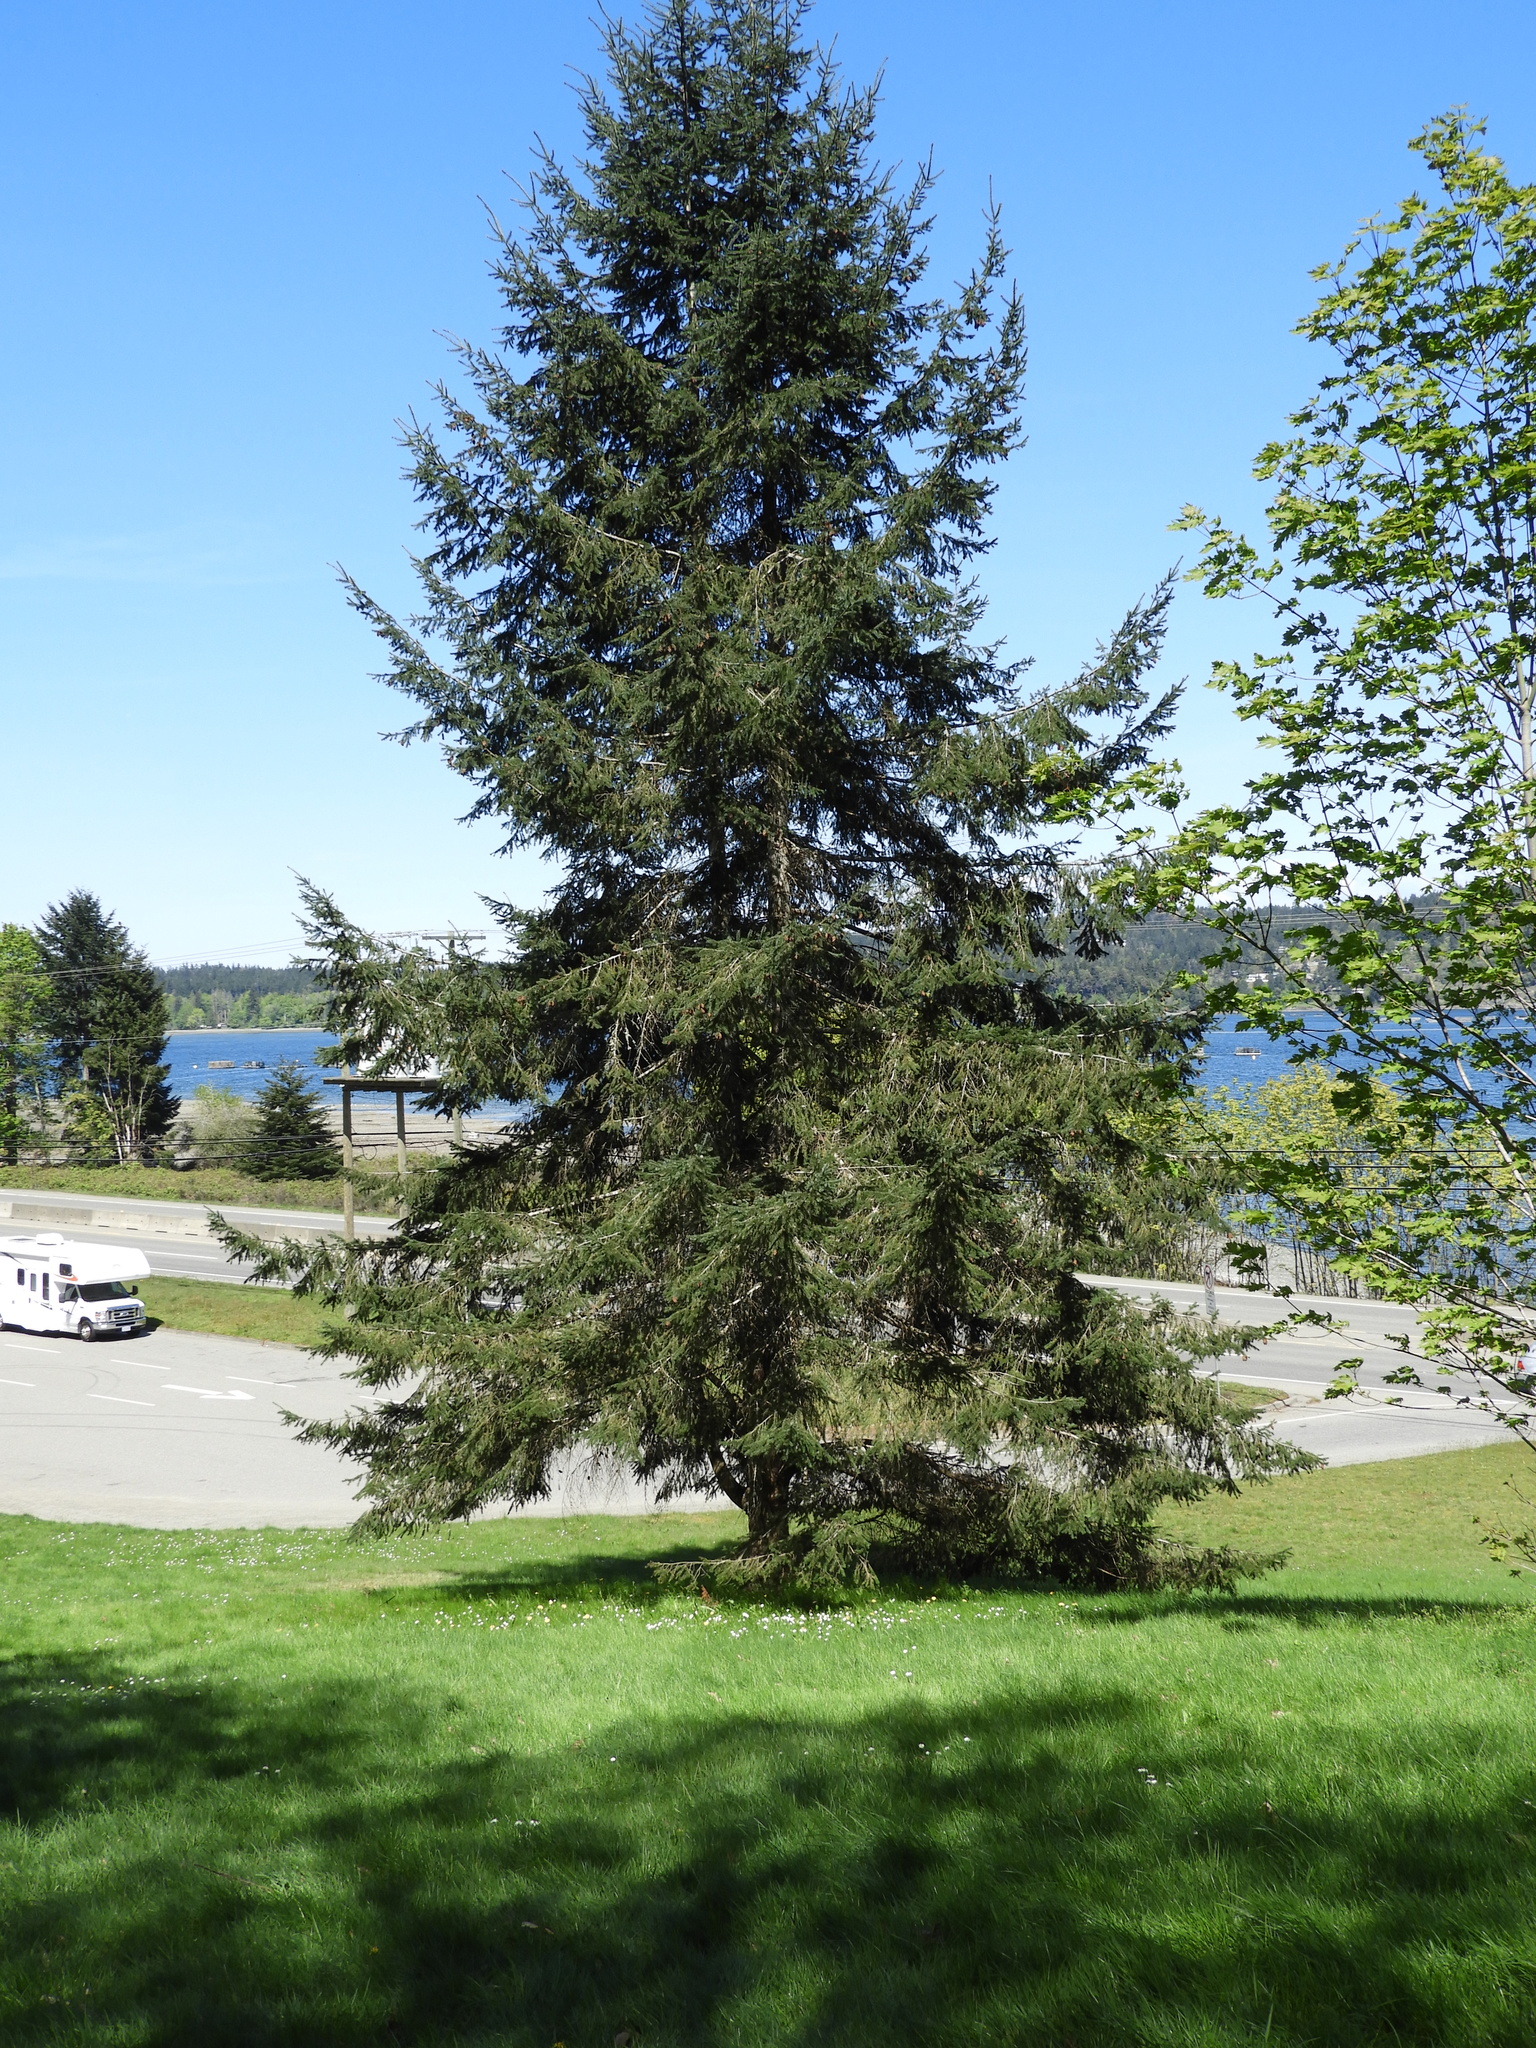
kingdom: Plantae
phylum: Tracheophyta
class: Pinopsida
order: Pinales
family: Pinaceae
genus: Pseudotsuga
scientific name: Pseudotsuga menziesii
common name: Douglas fir
